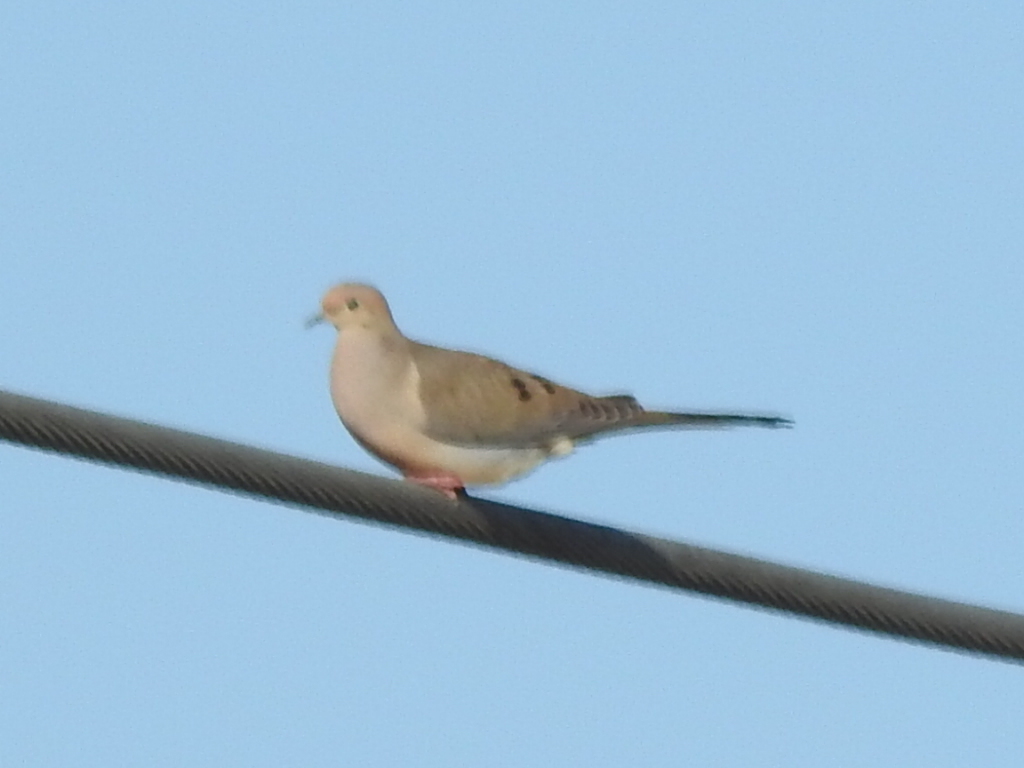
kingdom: Animalia
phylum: Chordata
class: Aves
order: Columbiformes
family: Columbidae
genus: Zenaida
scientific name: Zenaida macroura
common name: Mourning dove
